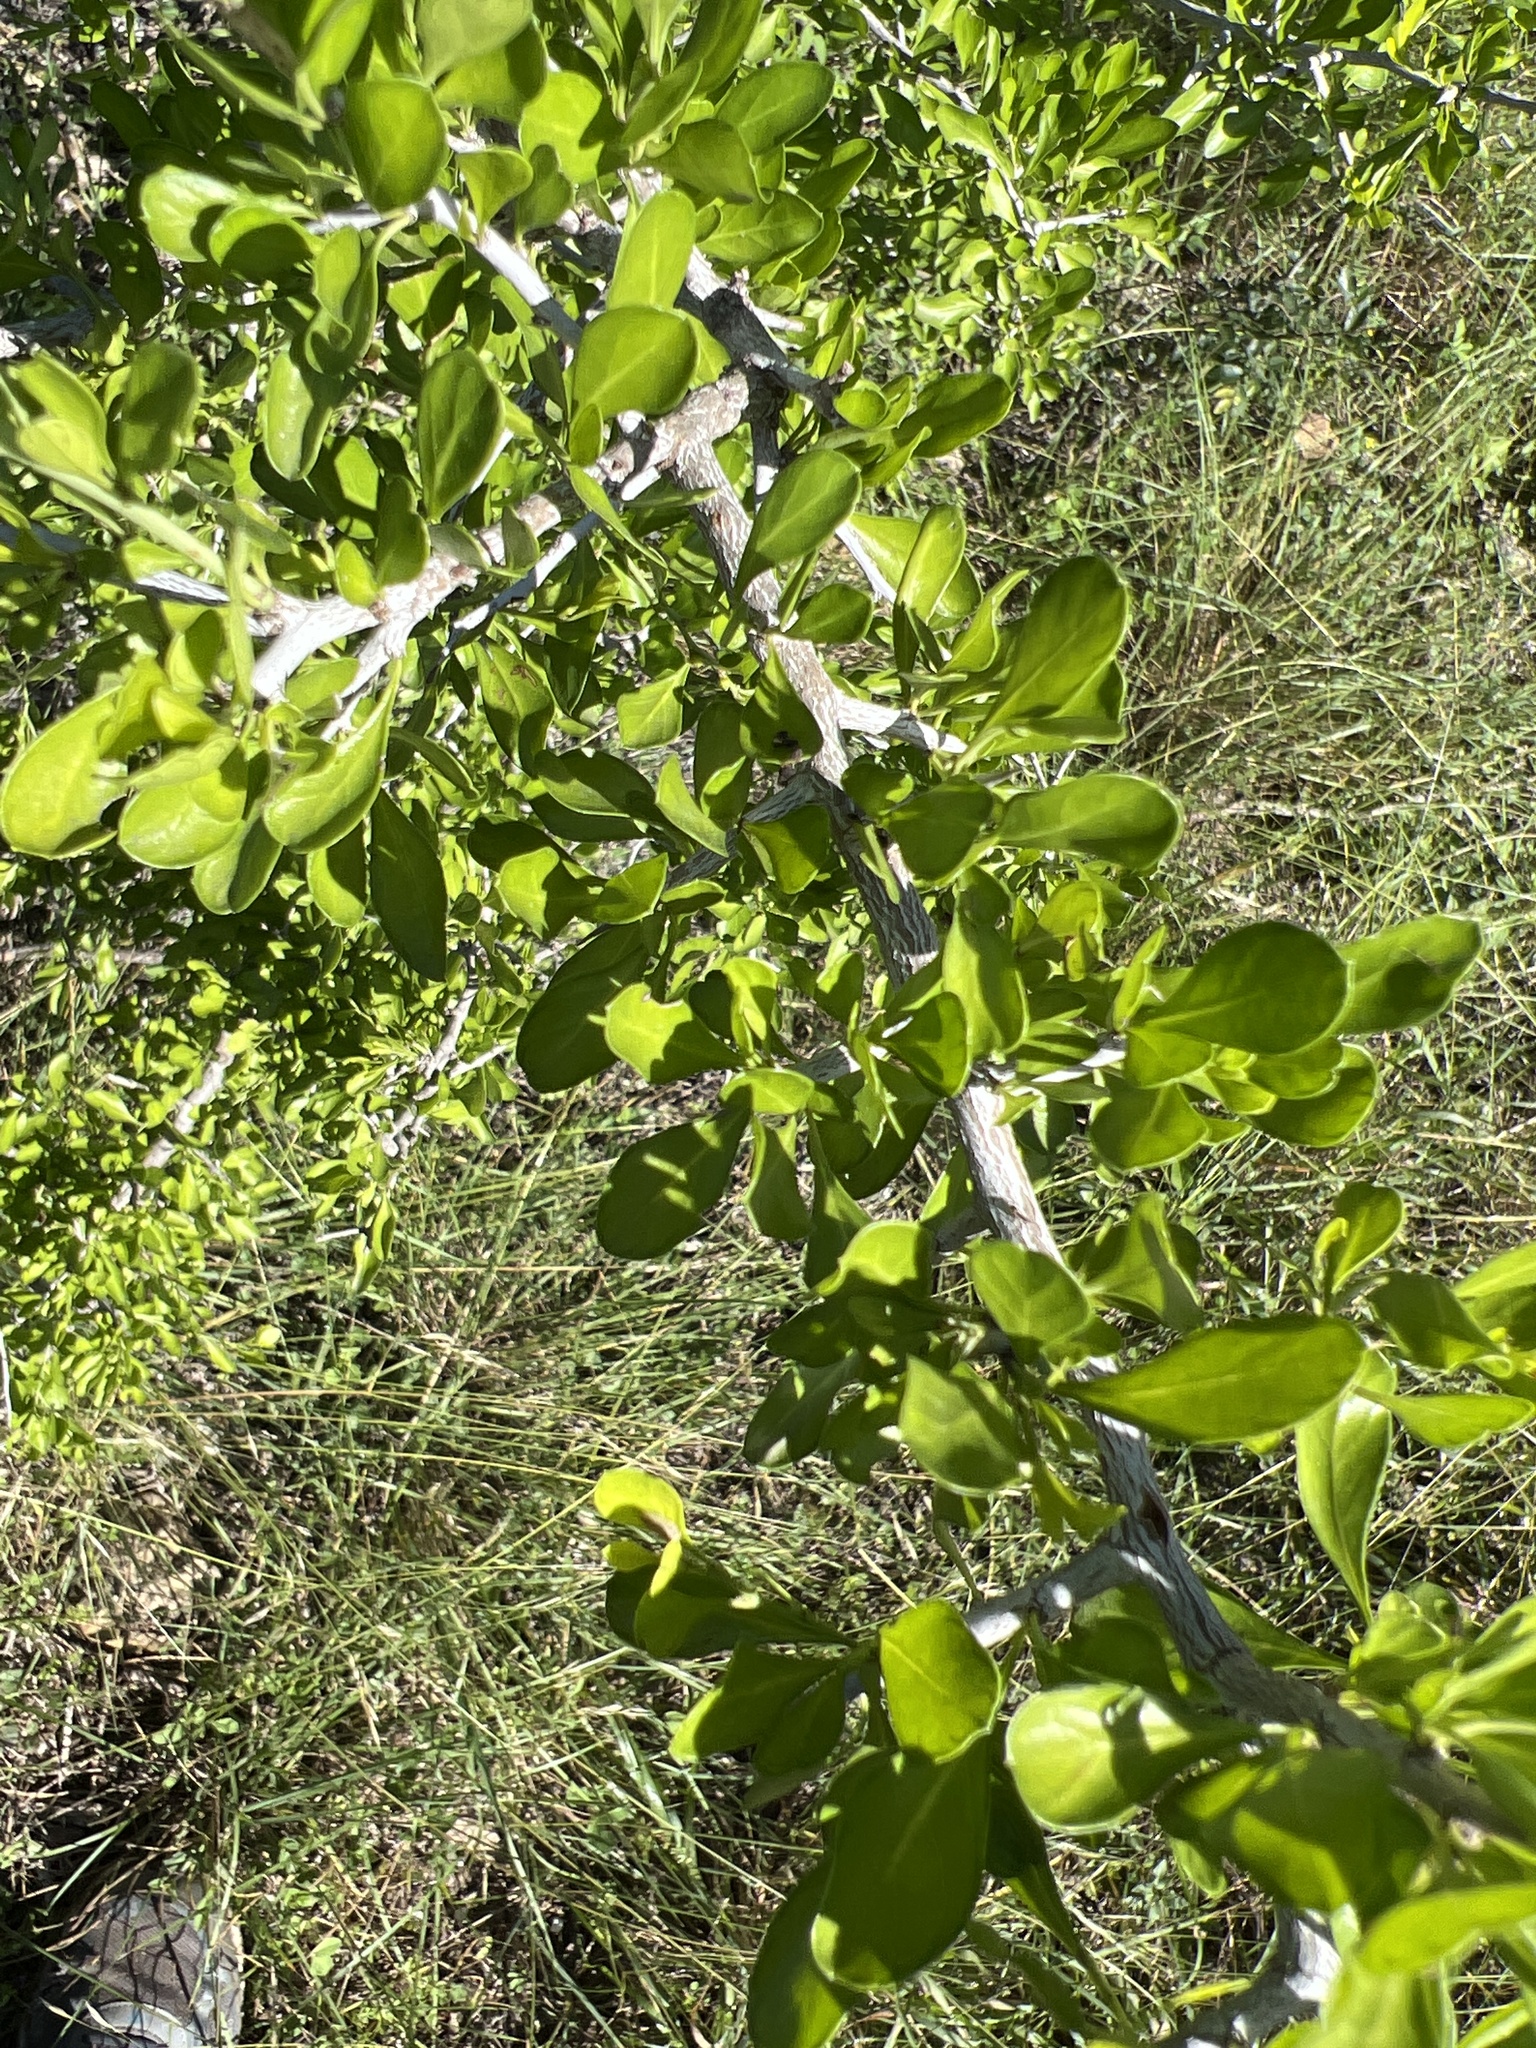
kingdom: Plantae
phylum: Tracheophyta
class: Magnoliopsida
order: Rosales
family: Rhamnaceae
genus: Condalia
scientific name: Condalia hookeri
